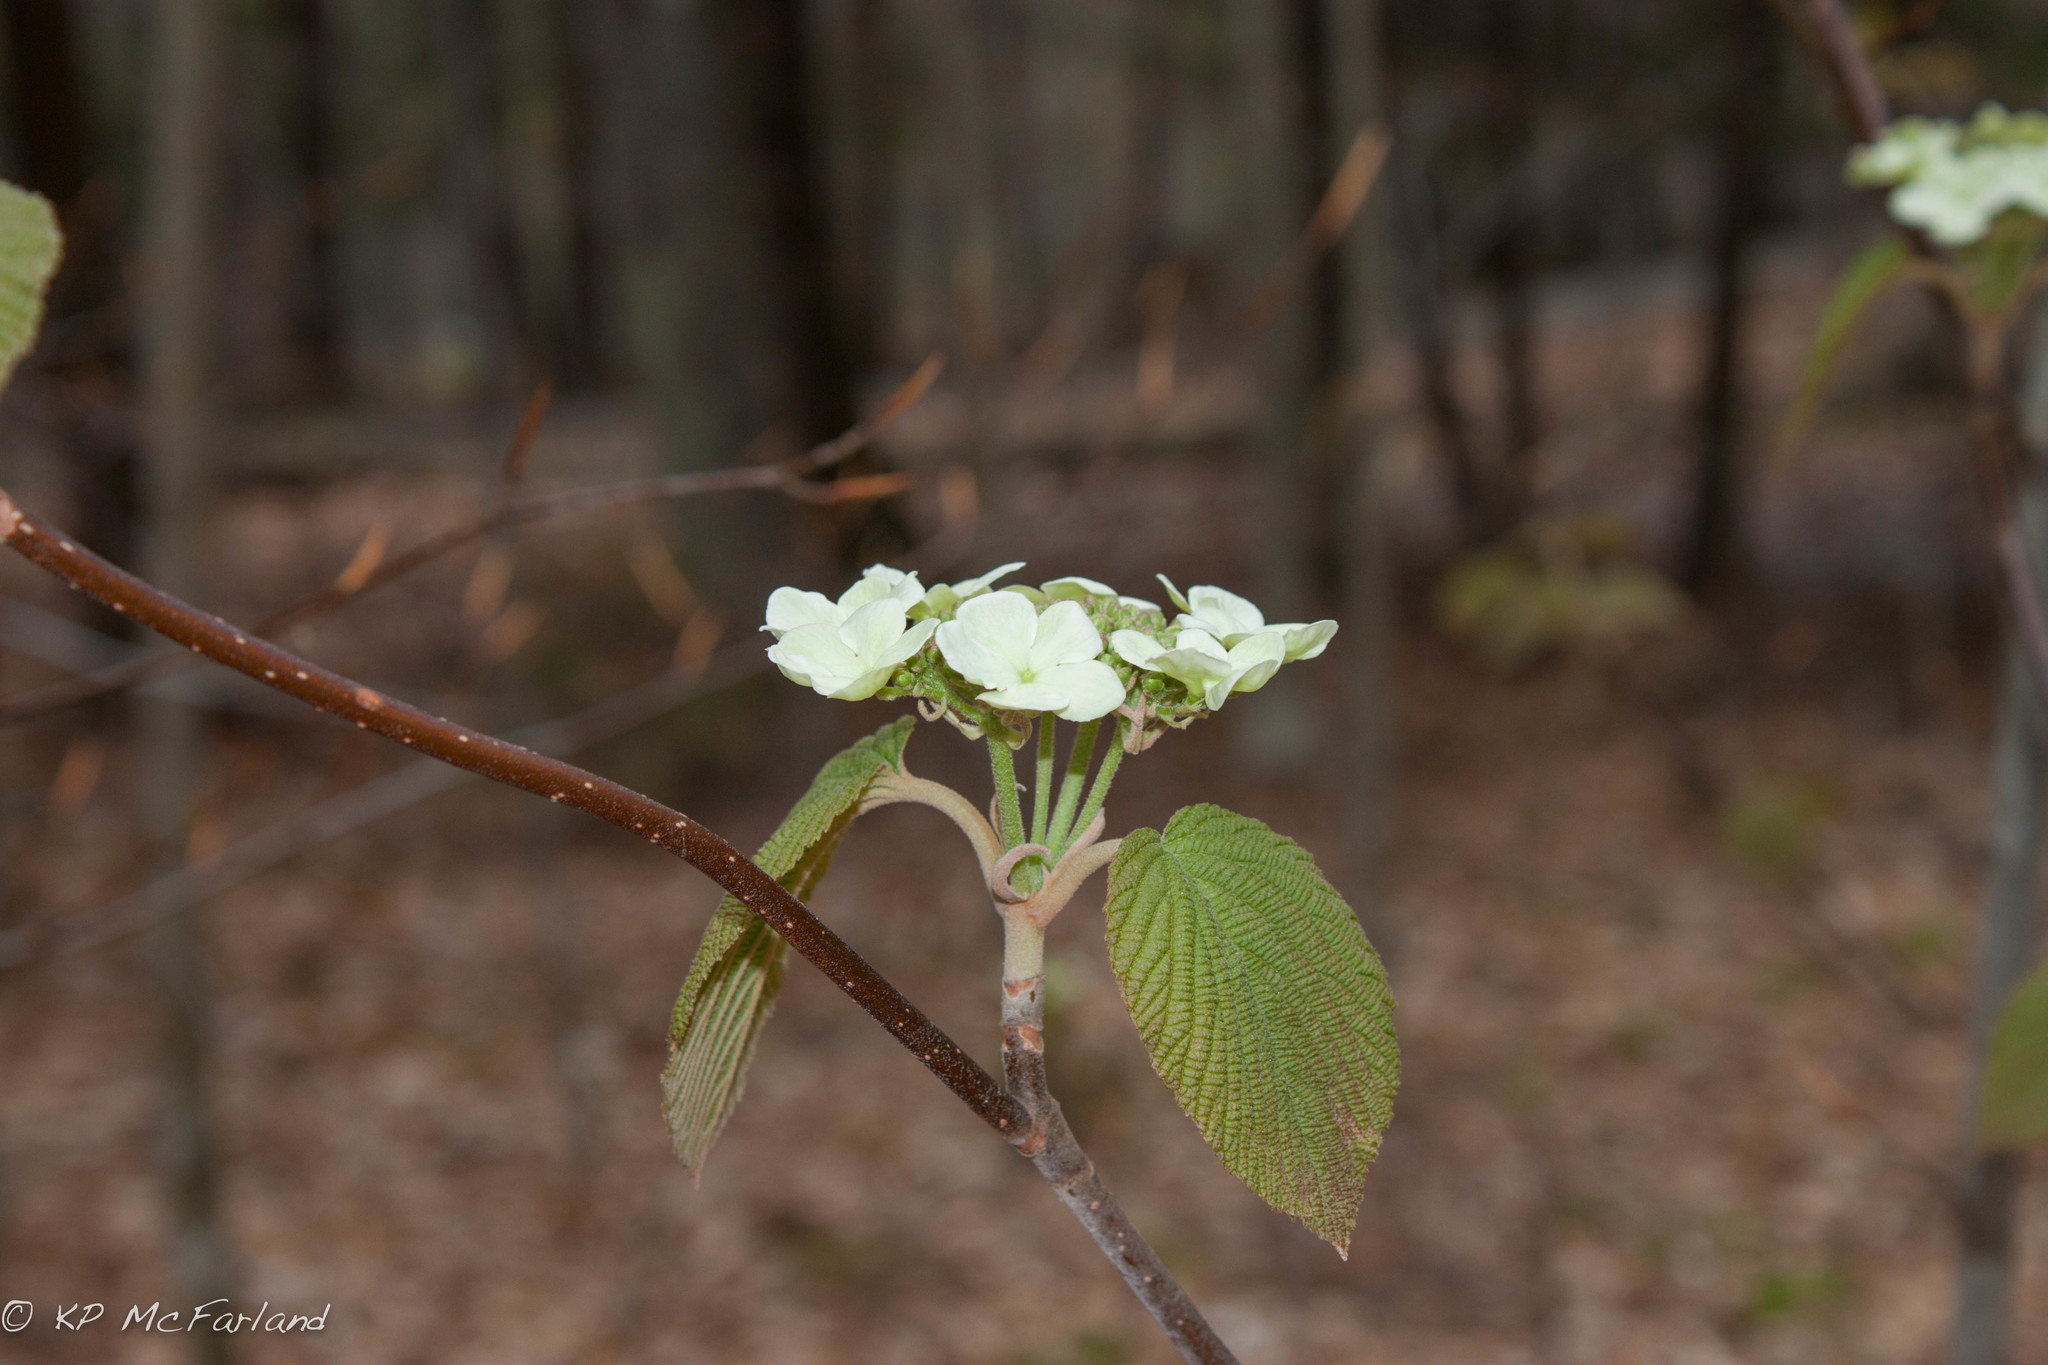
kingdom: Plantae
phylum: Tracheophyta
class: Magnoliopsida
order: Dipsacales
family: Viburnaceae
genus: Viburnum
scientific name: Viburnum lantanoides
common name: Hobblebush
